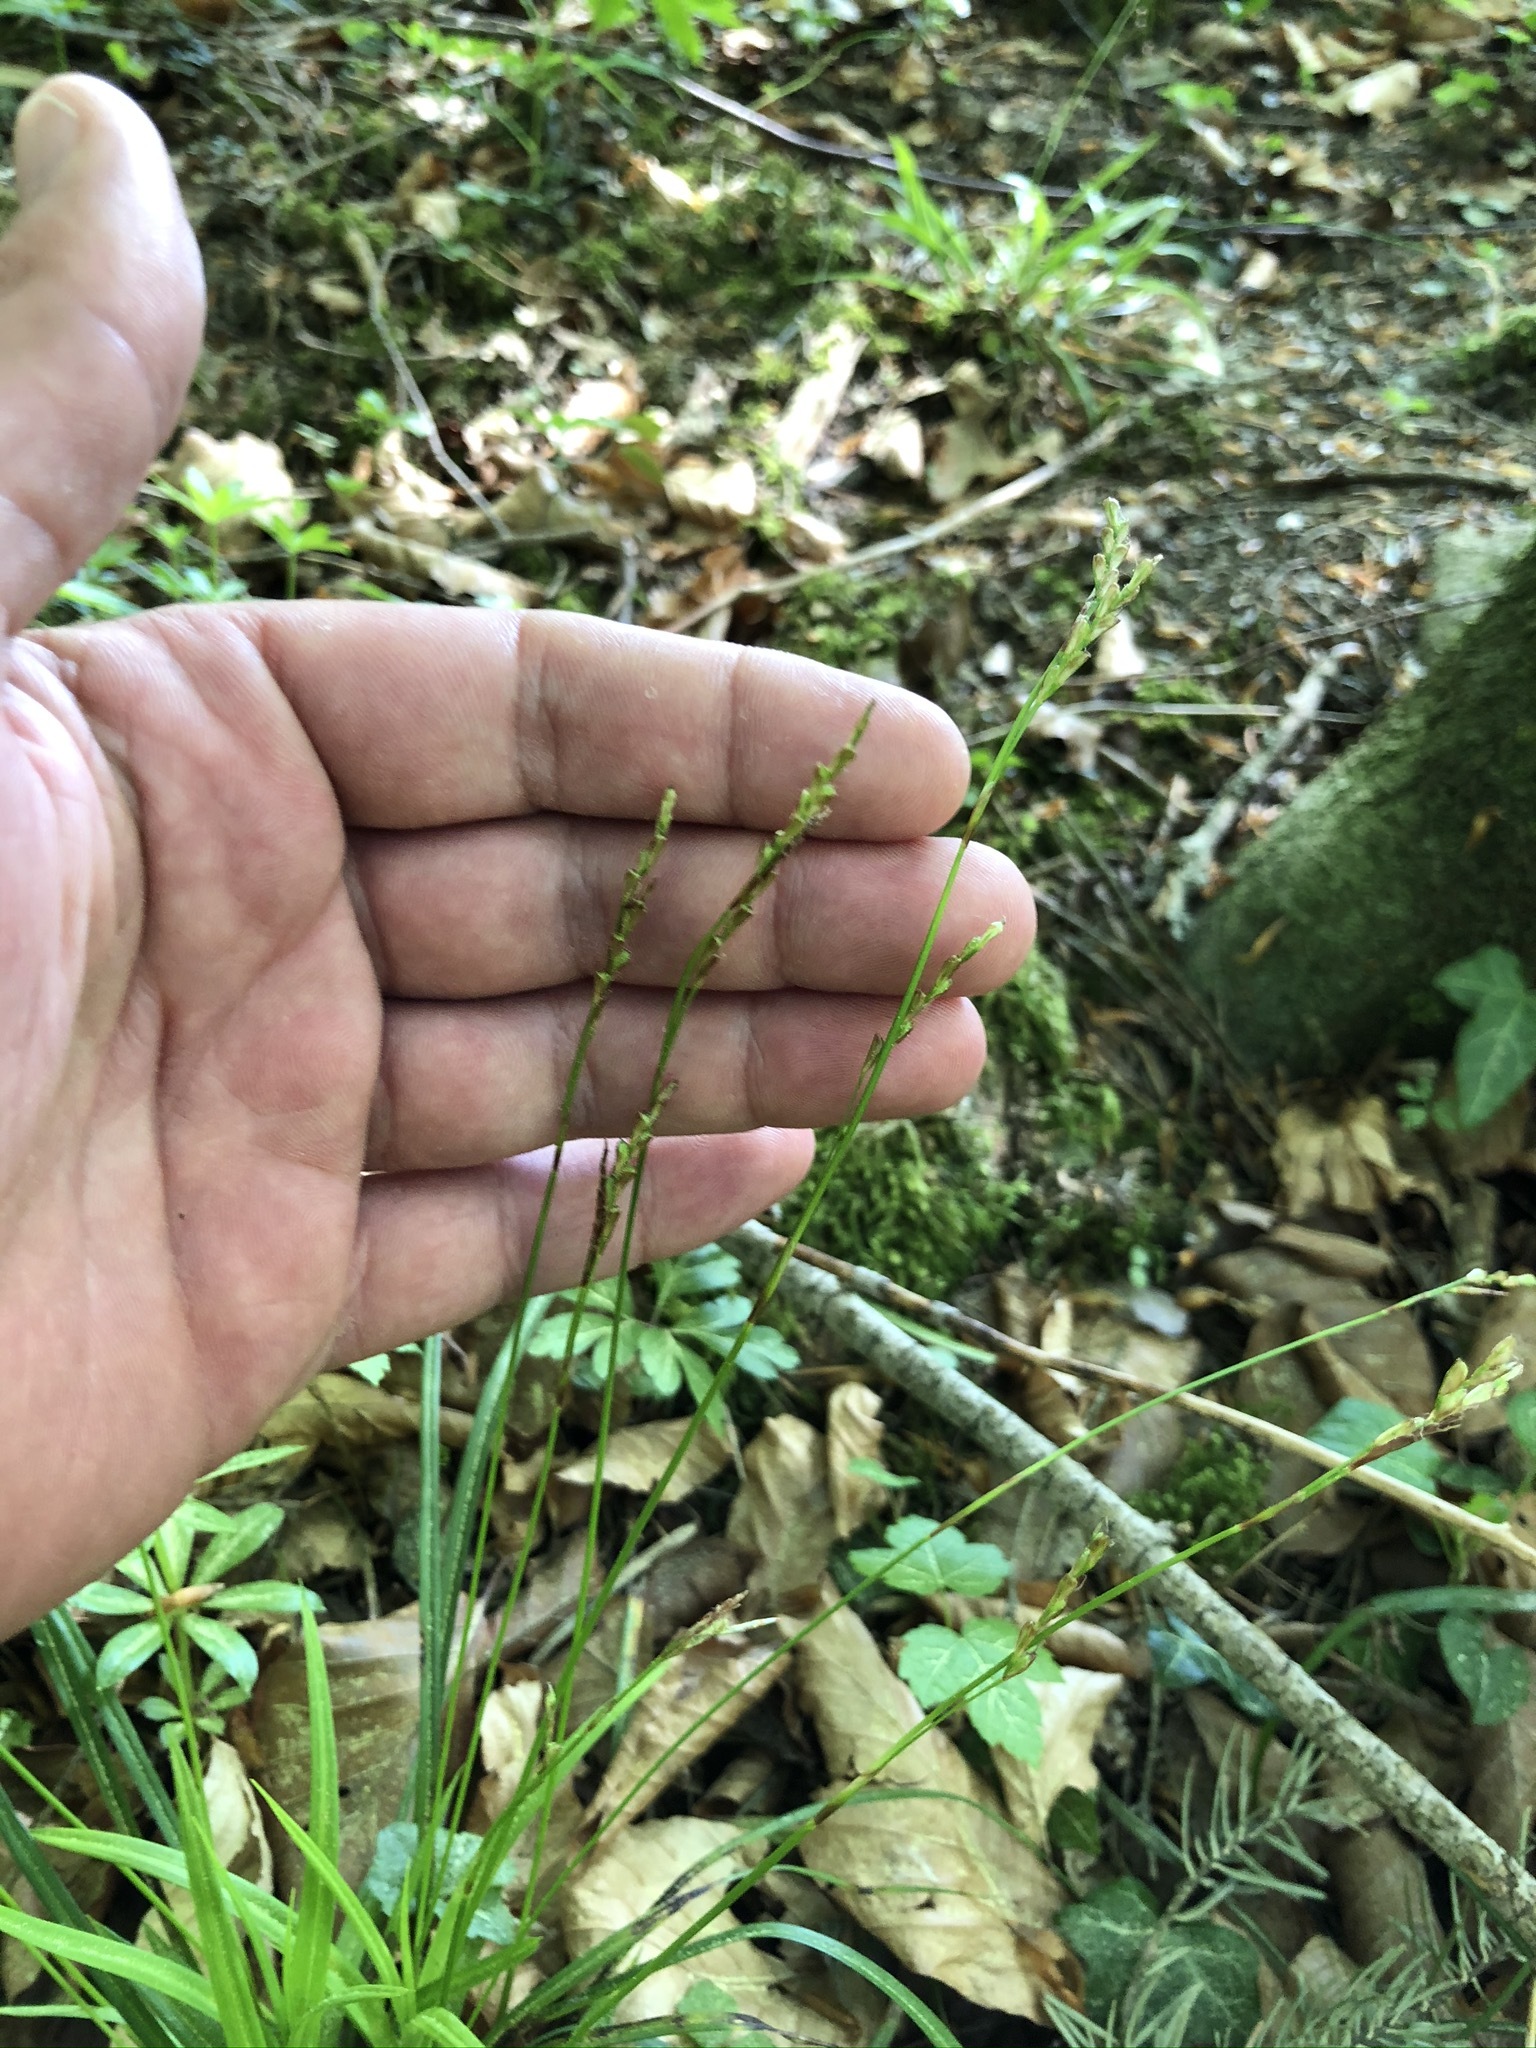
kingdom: Plantae
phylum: Tracheophyta
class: Liliopsida
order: Poales
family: Cyperaceae
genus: Carex
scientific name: Carex digitata
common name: Fingered sedge
